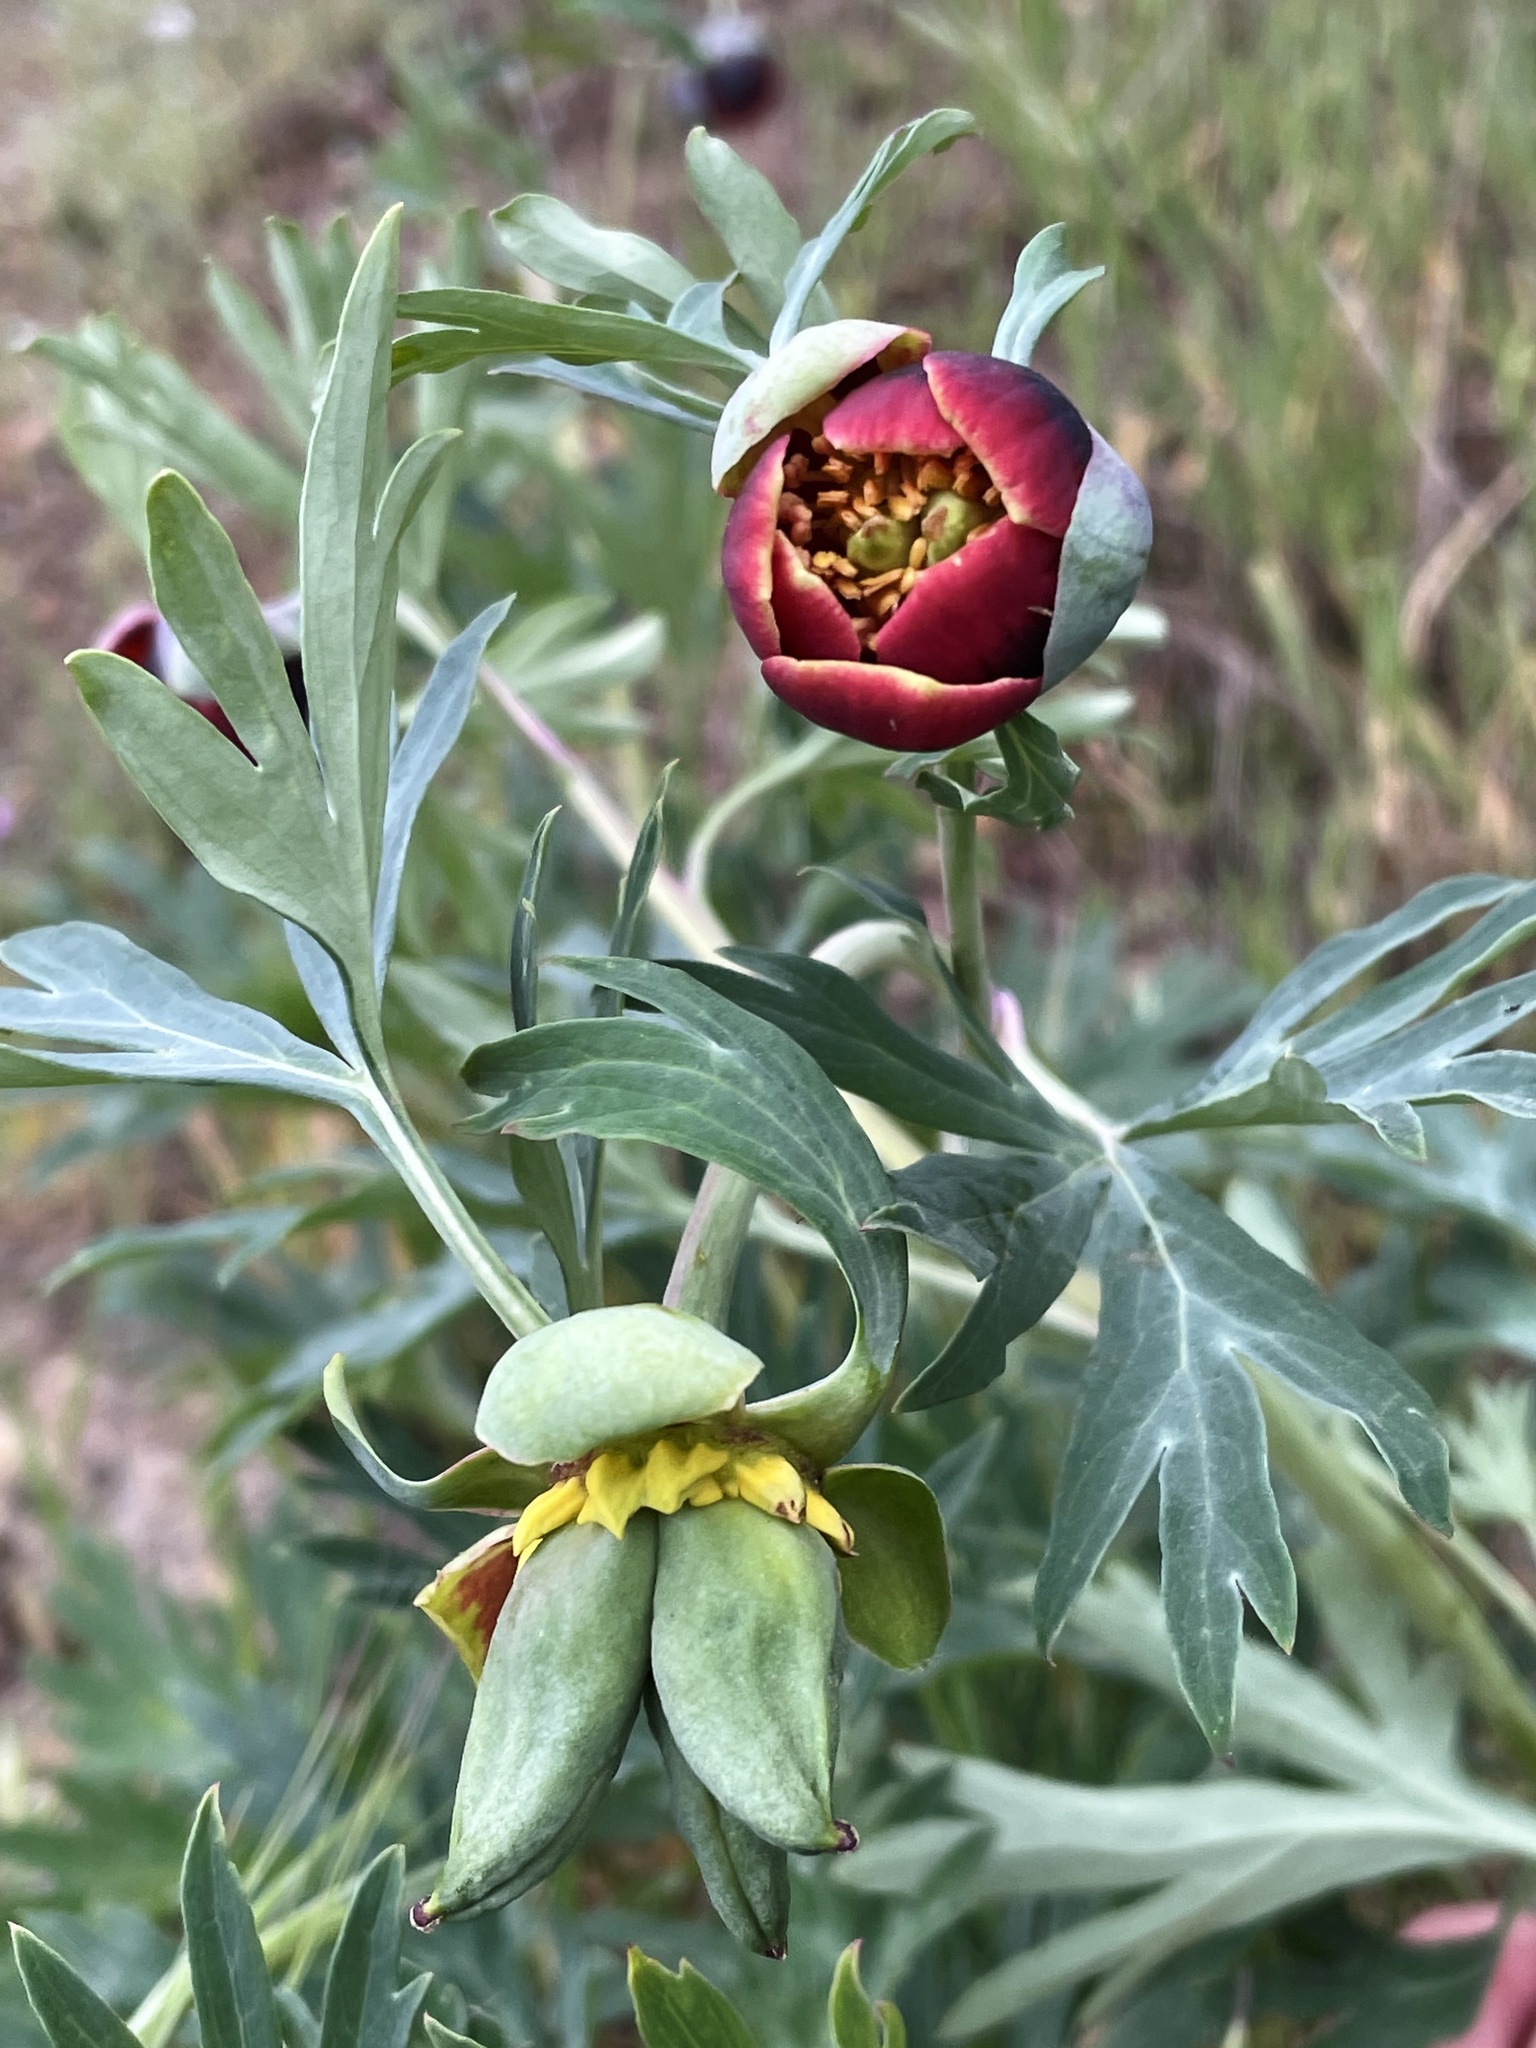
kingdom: Plantae
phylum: Tracheophyta
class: Magnoliopsida
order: Saxifragales
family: Paeoniaceae
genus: Paeonia
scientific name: Paeonia californica
